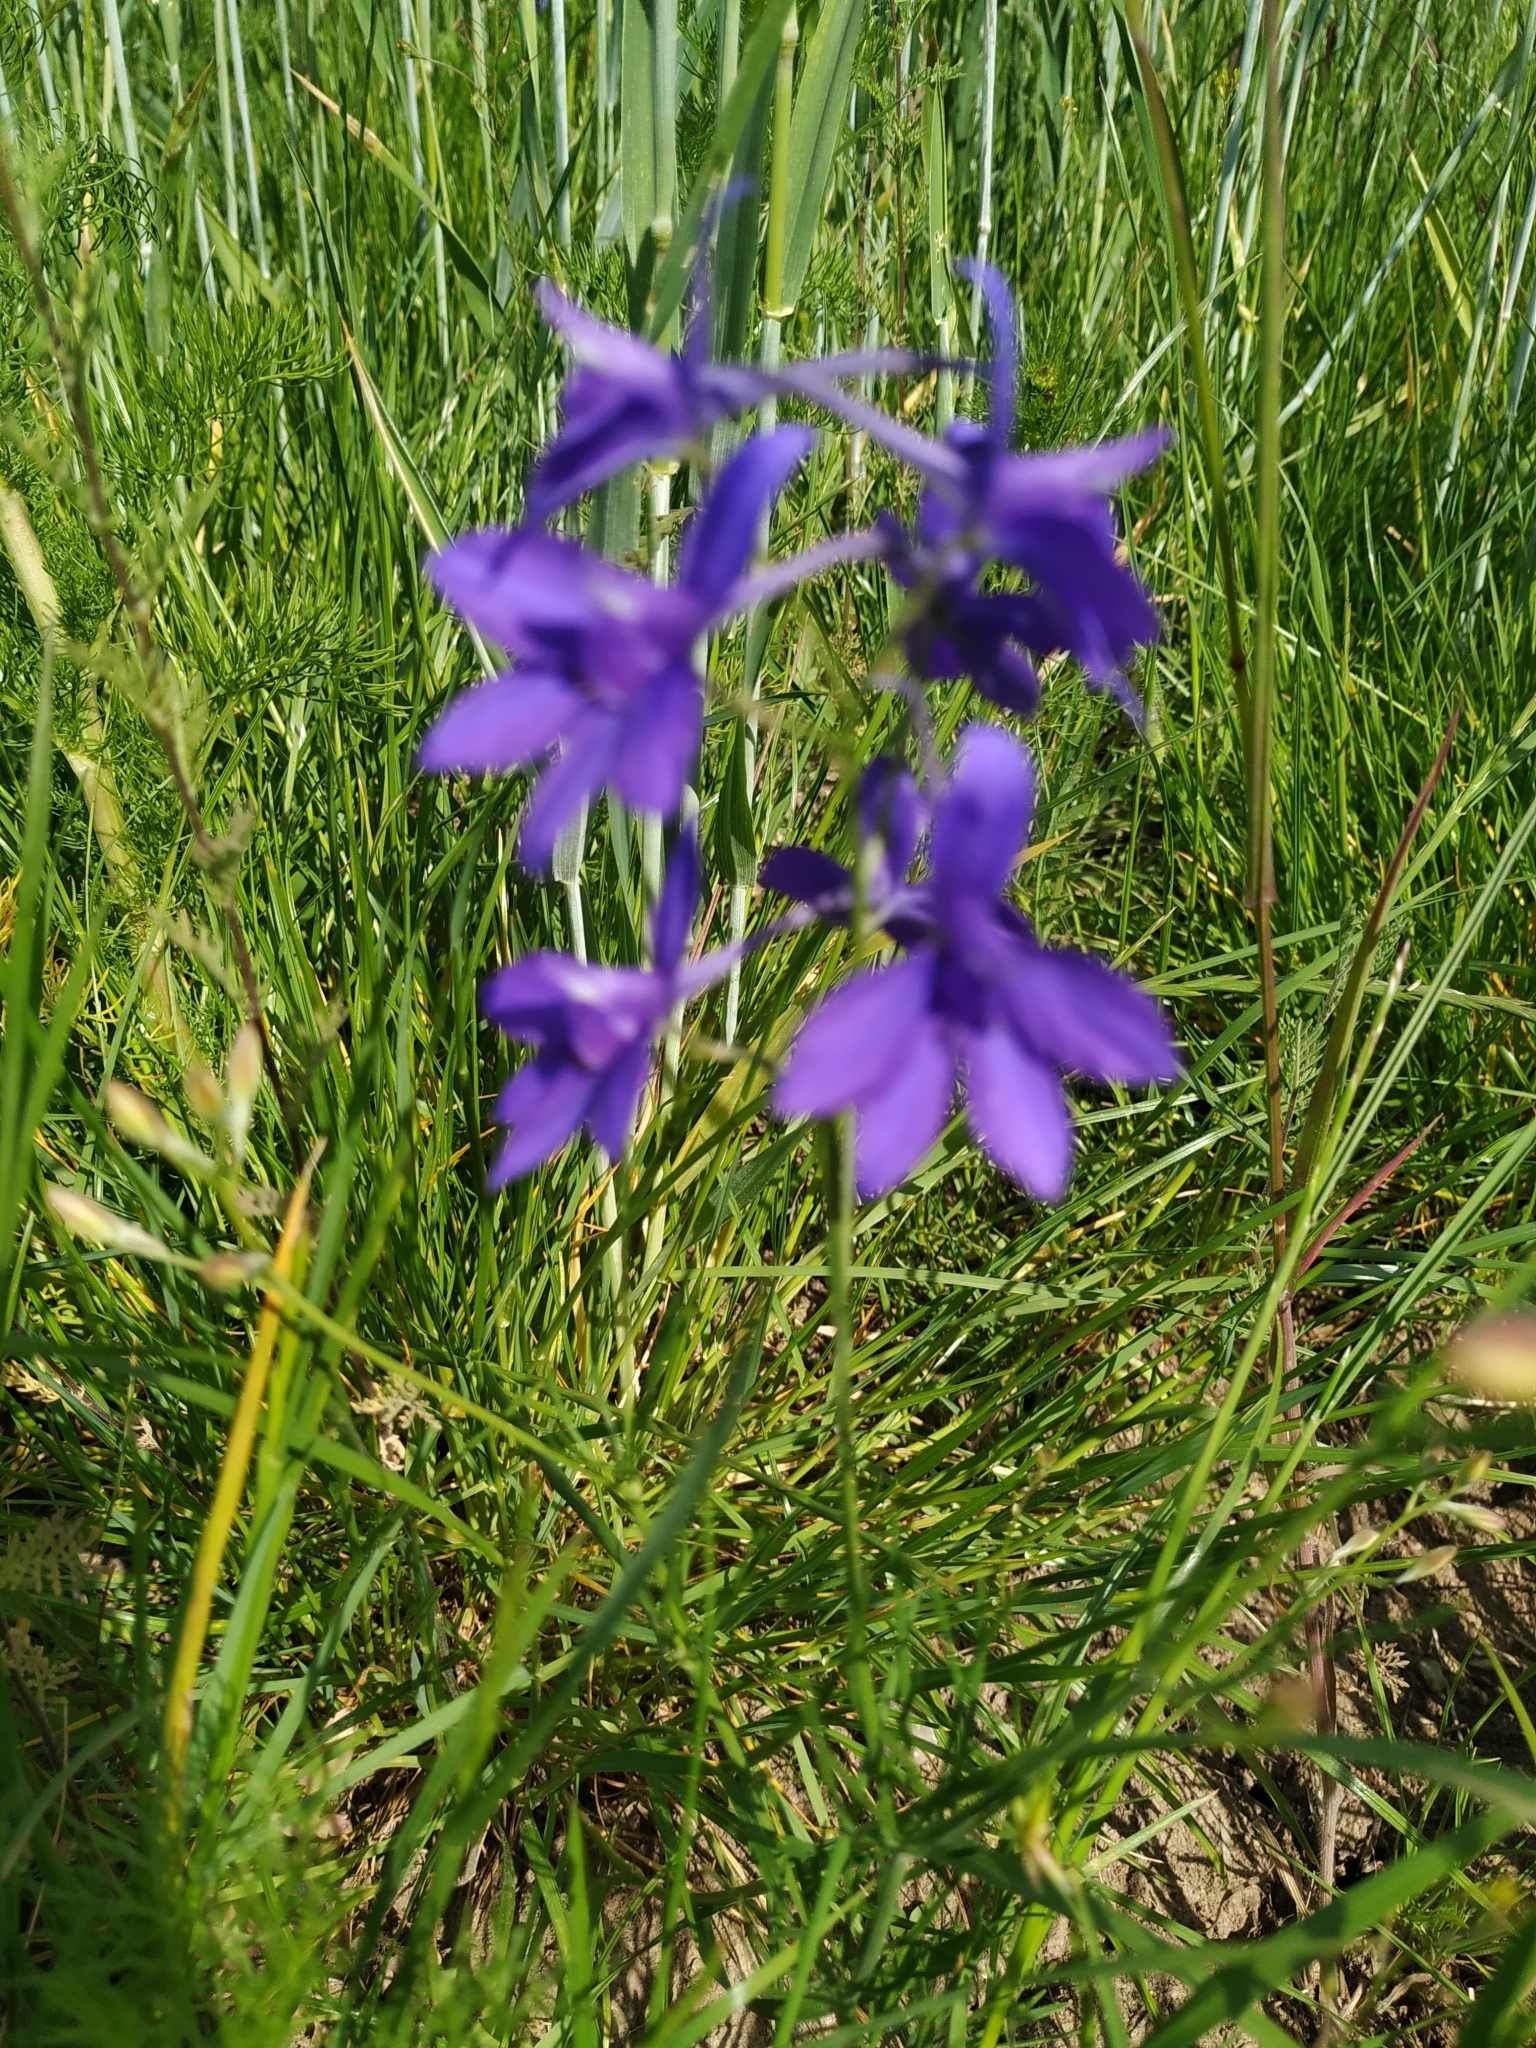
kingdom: Plantae
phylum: Tracheophyta
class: Magnoliopsida
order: Ranunculales
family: Ranunculaceae
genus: Delphinium
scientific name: Delphinium consolida
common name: Branching larkspur
